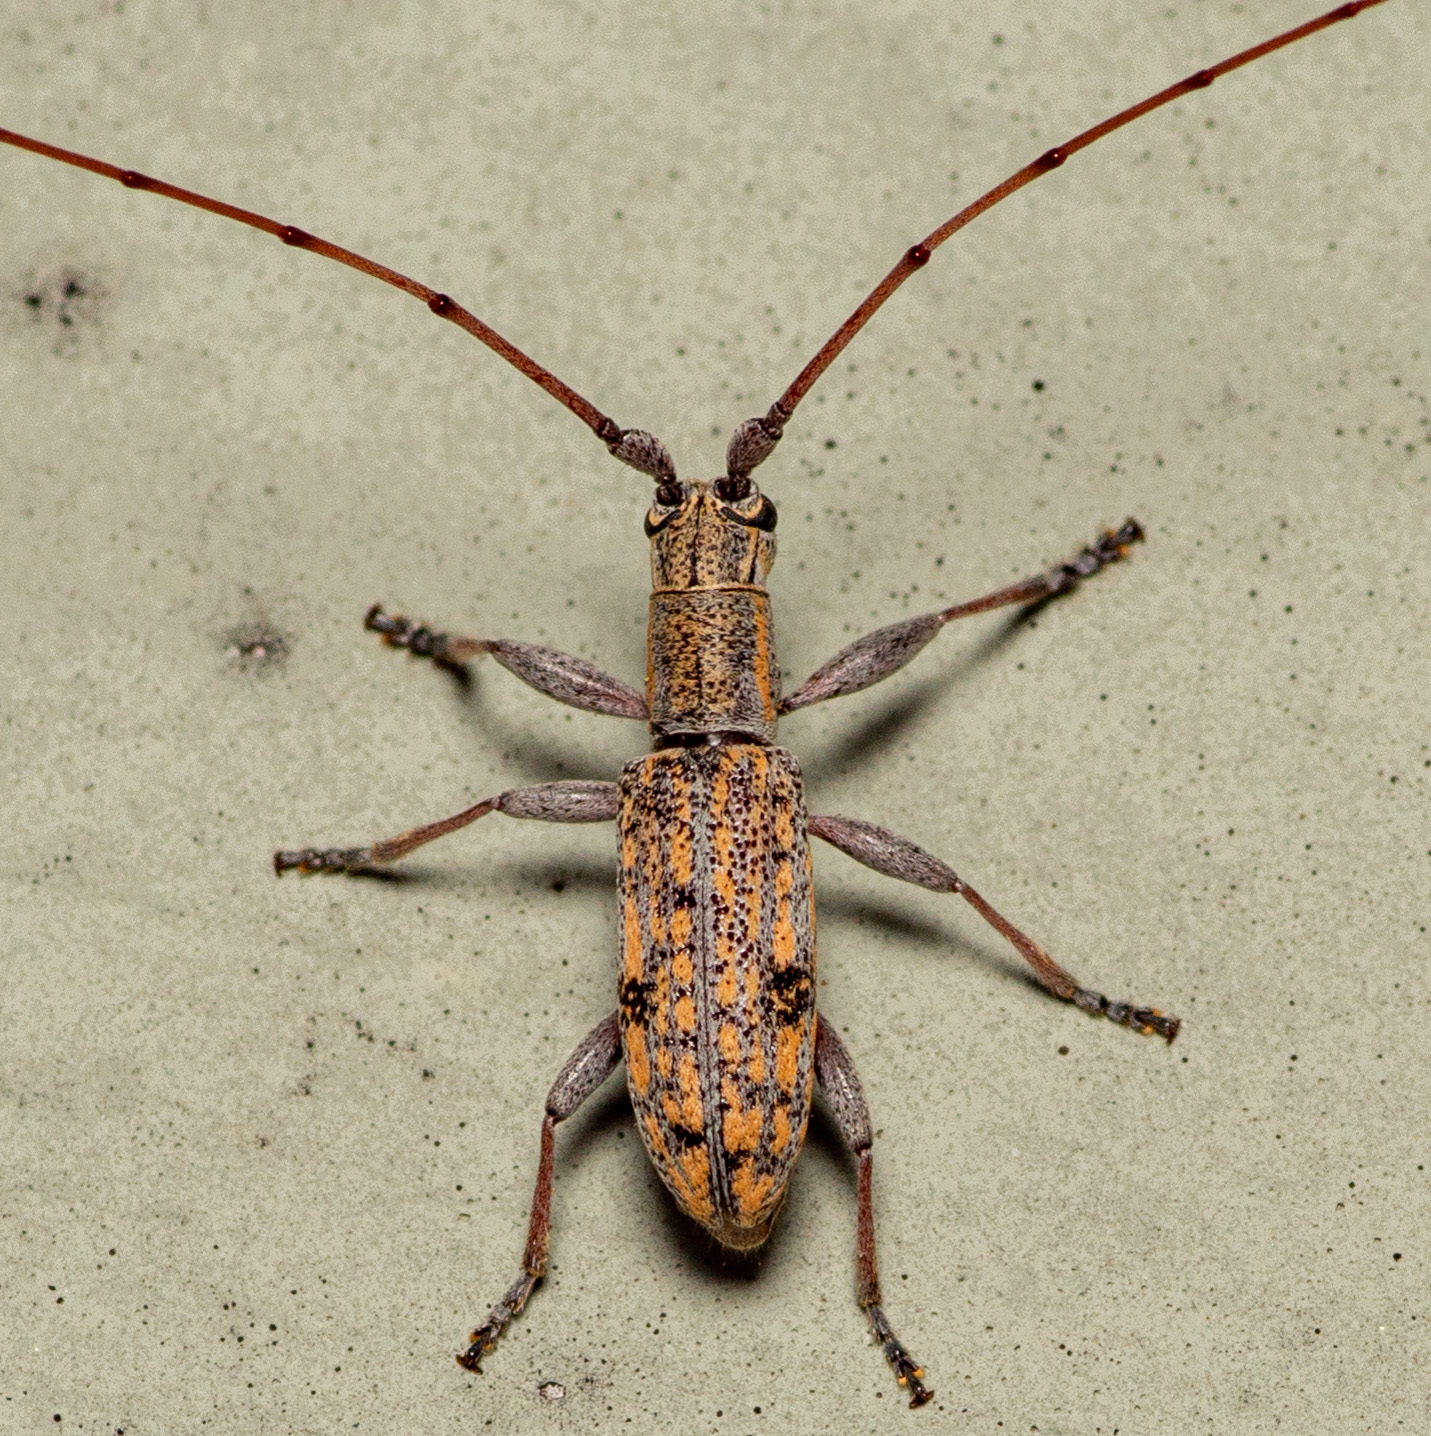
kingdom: Animalia
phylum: Arthropoda
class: Insecta
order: Coleoptera
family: Cerambycidae
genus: Dorcaschema
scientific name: Dorcaschema alternatum
